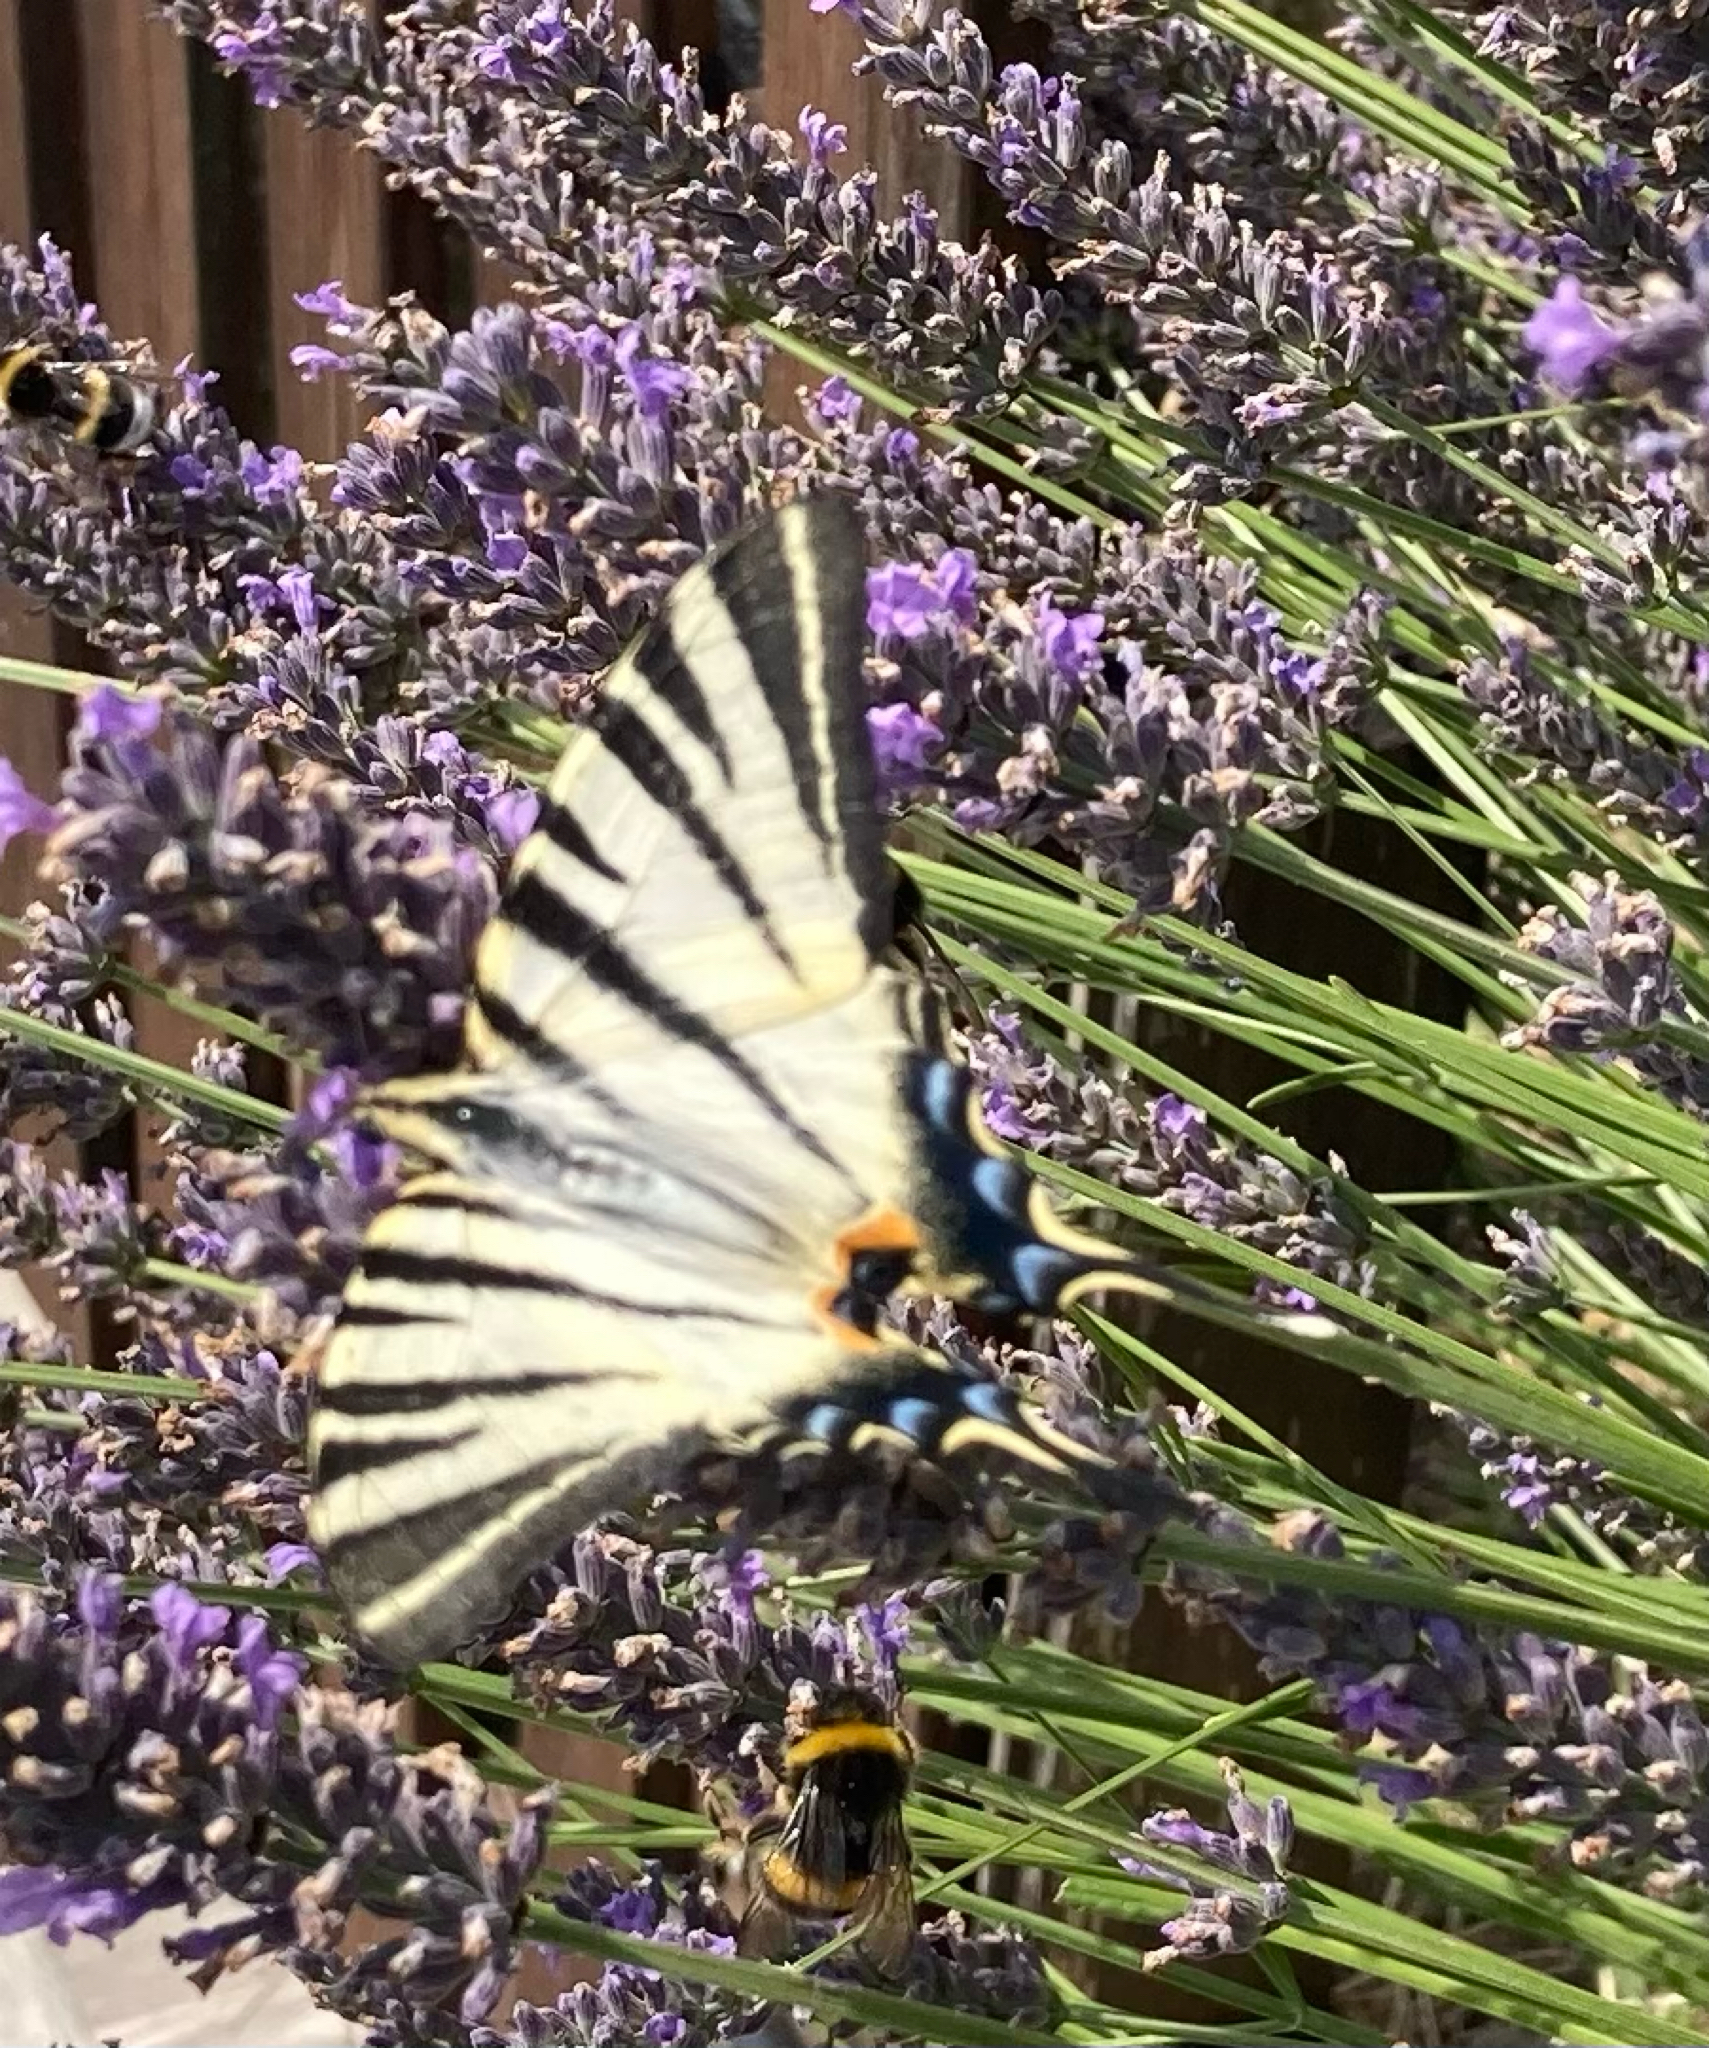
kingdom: Animalia
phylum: Arthropoda
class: Insecta
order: Lepidoptera
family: Papilionidae
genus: Iphiclides
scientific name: Iphiclides podalirius
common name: Scarce swallowtail
